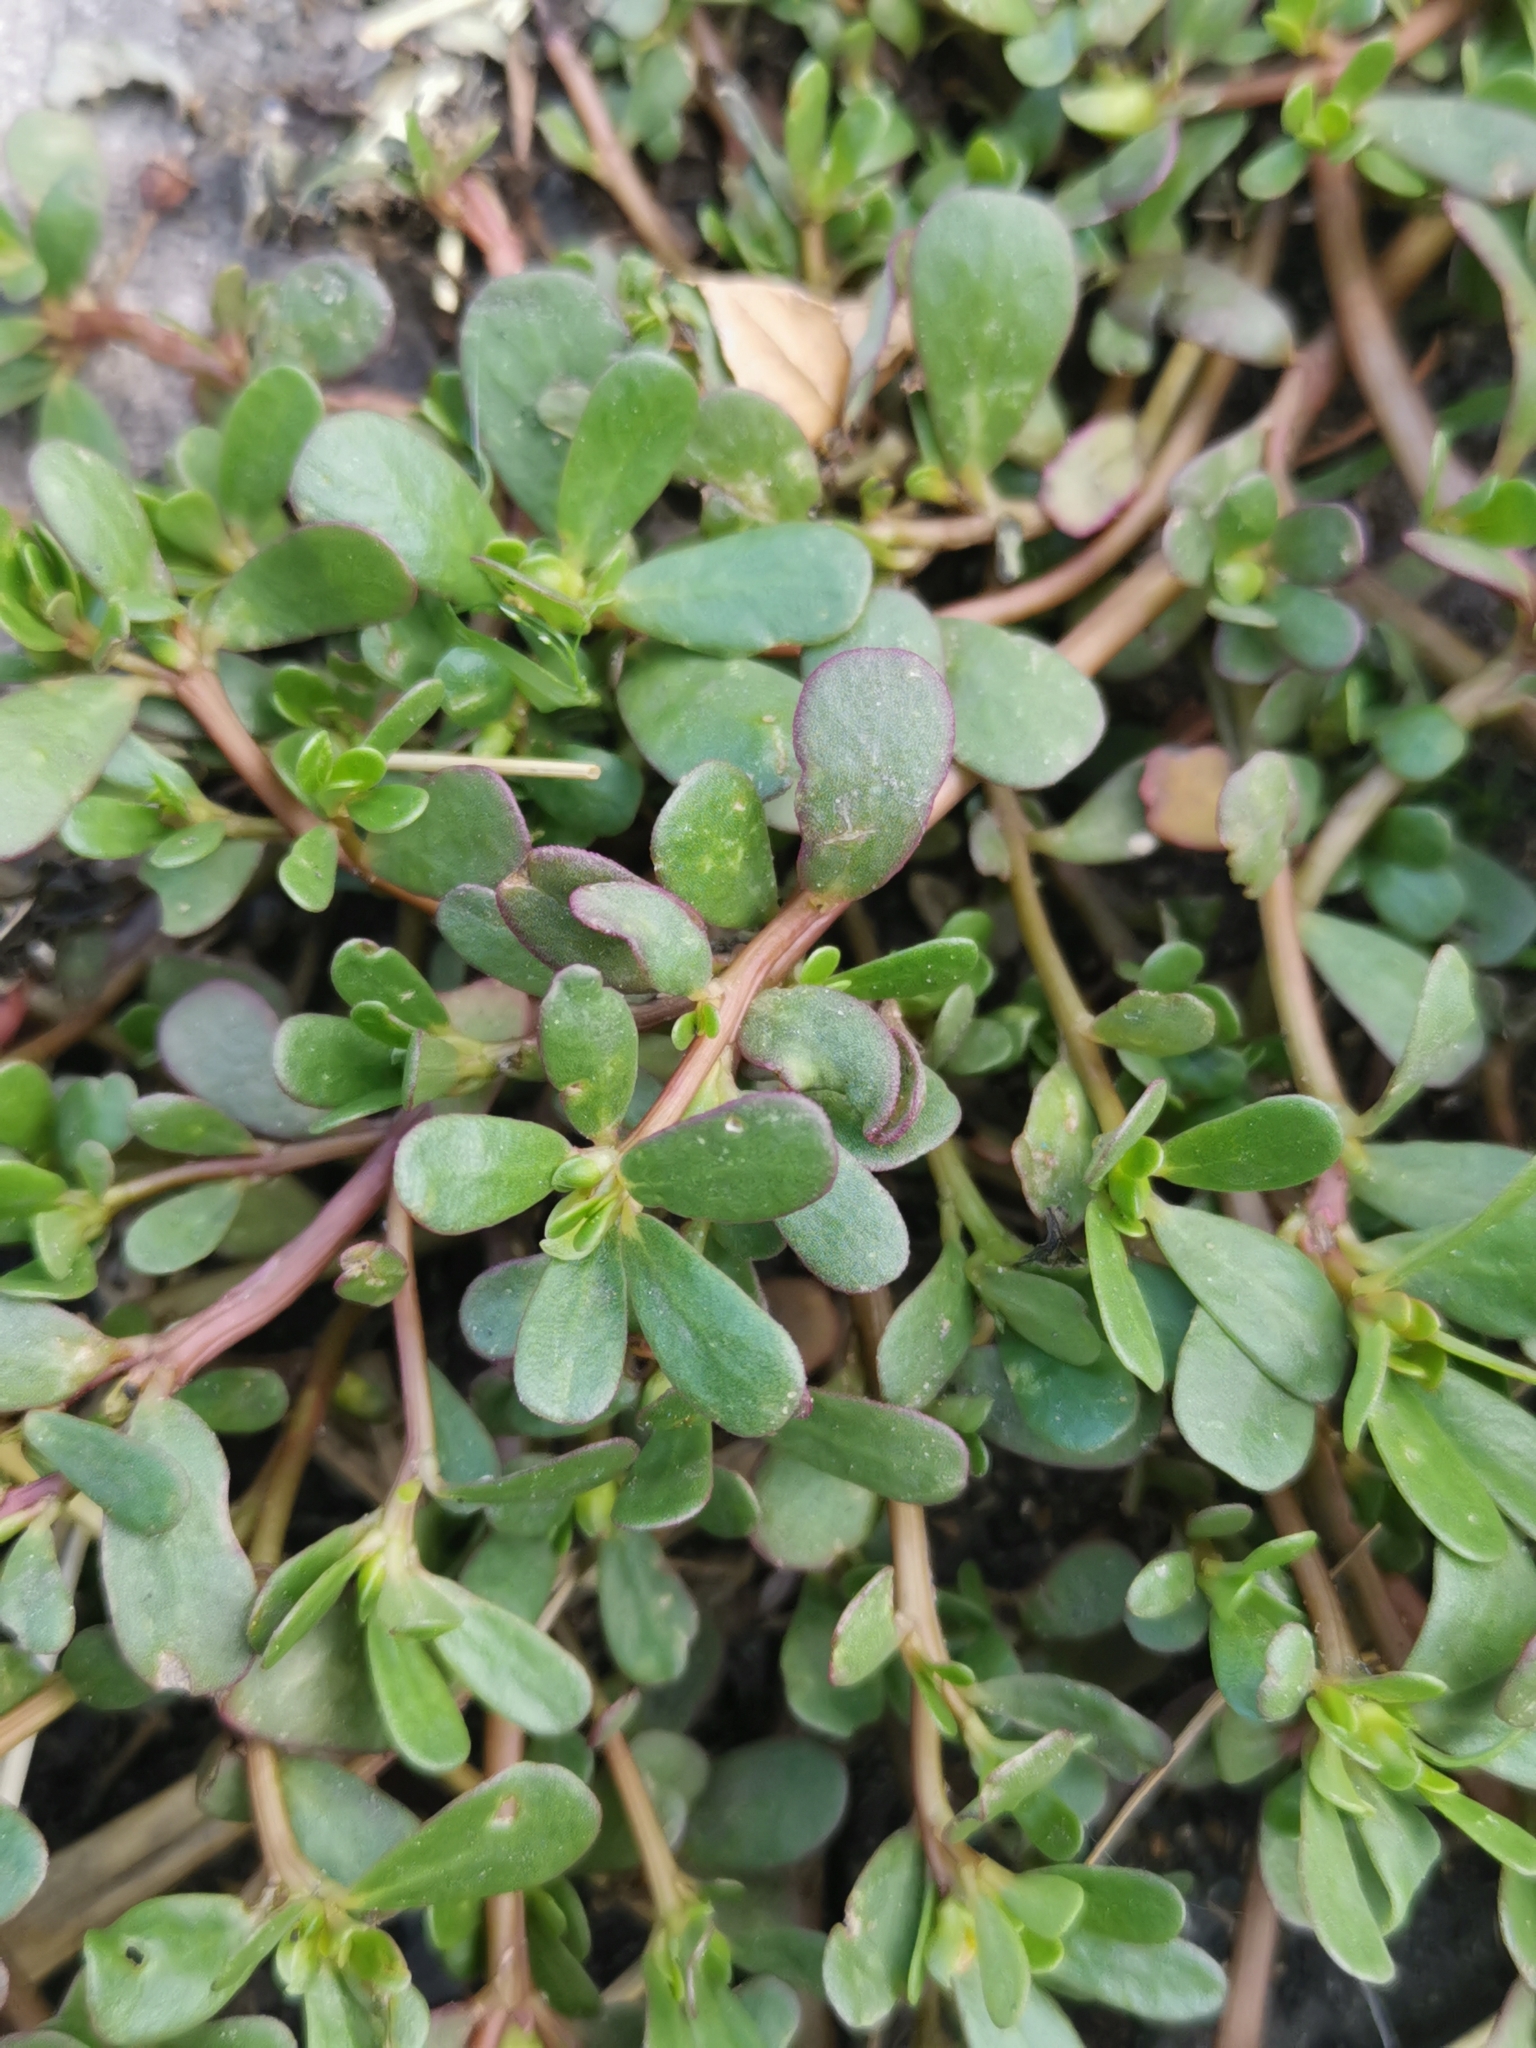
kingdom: Plantae
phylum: Tracheophyta
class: Magnoliopsida
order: Caryophyllales
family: Portulacaceae
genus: Portulaca
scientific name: Portulaca oleracea
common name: Common purslane
